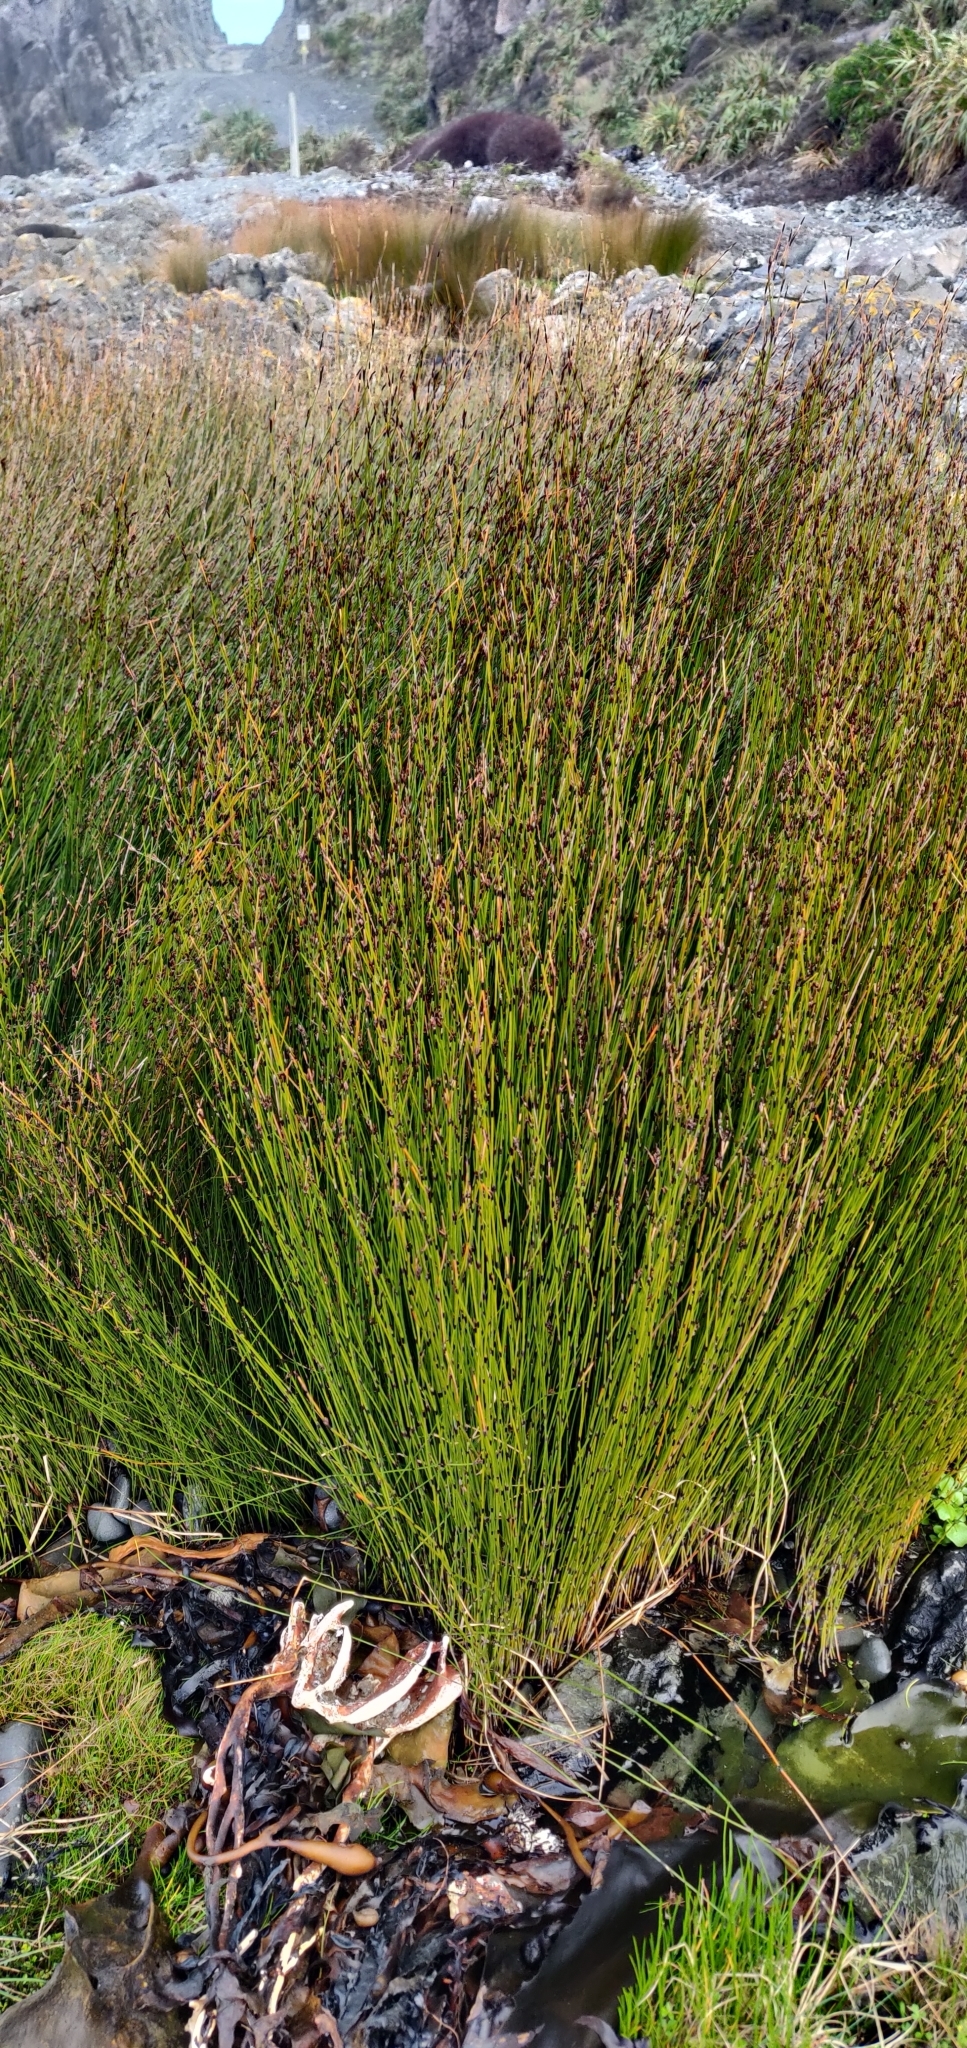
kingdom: Plantae
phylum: Tracheophyta
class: Liliopsida
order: Poales
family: Restionaceae
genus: Apodasmia
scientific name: Apodasmia similis
